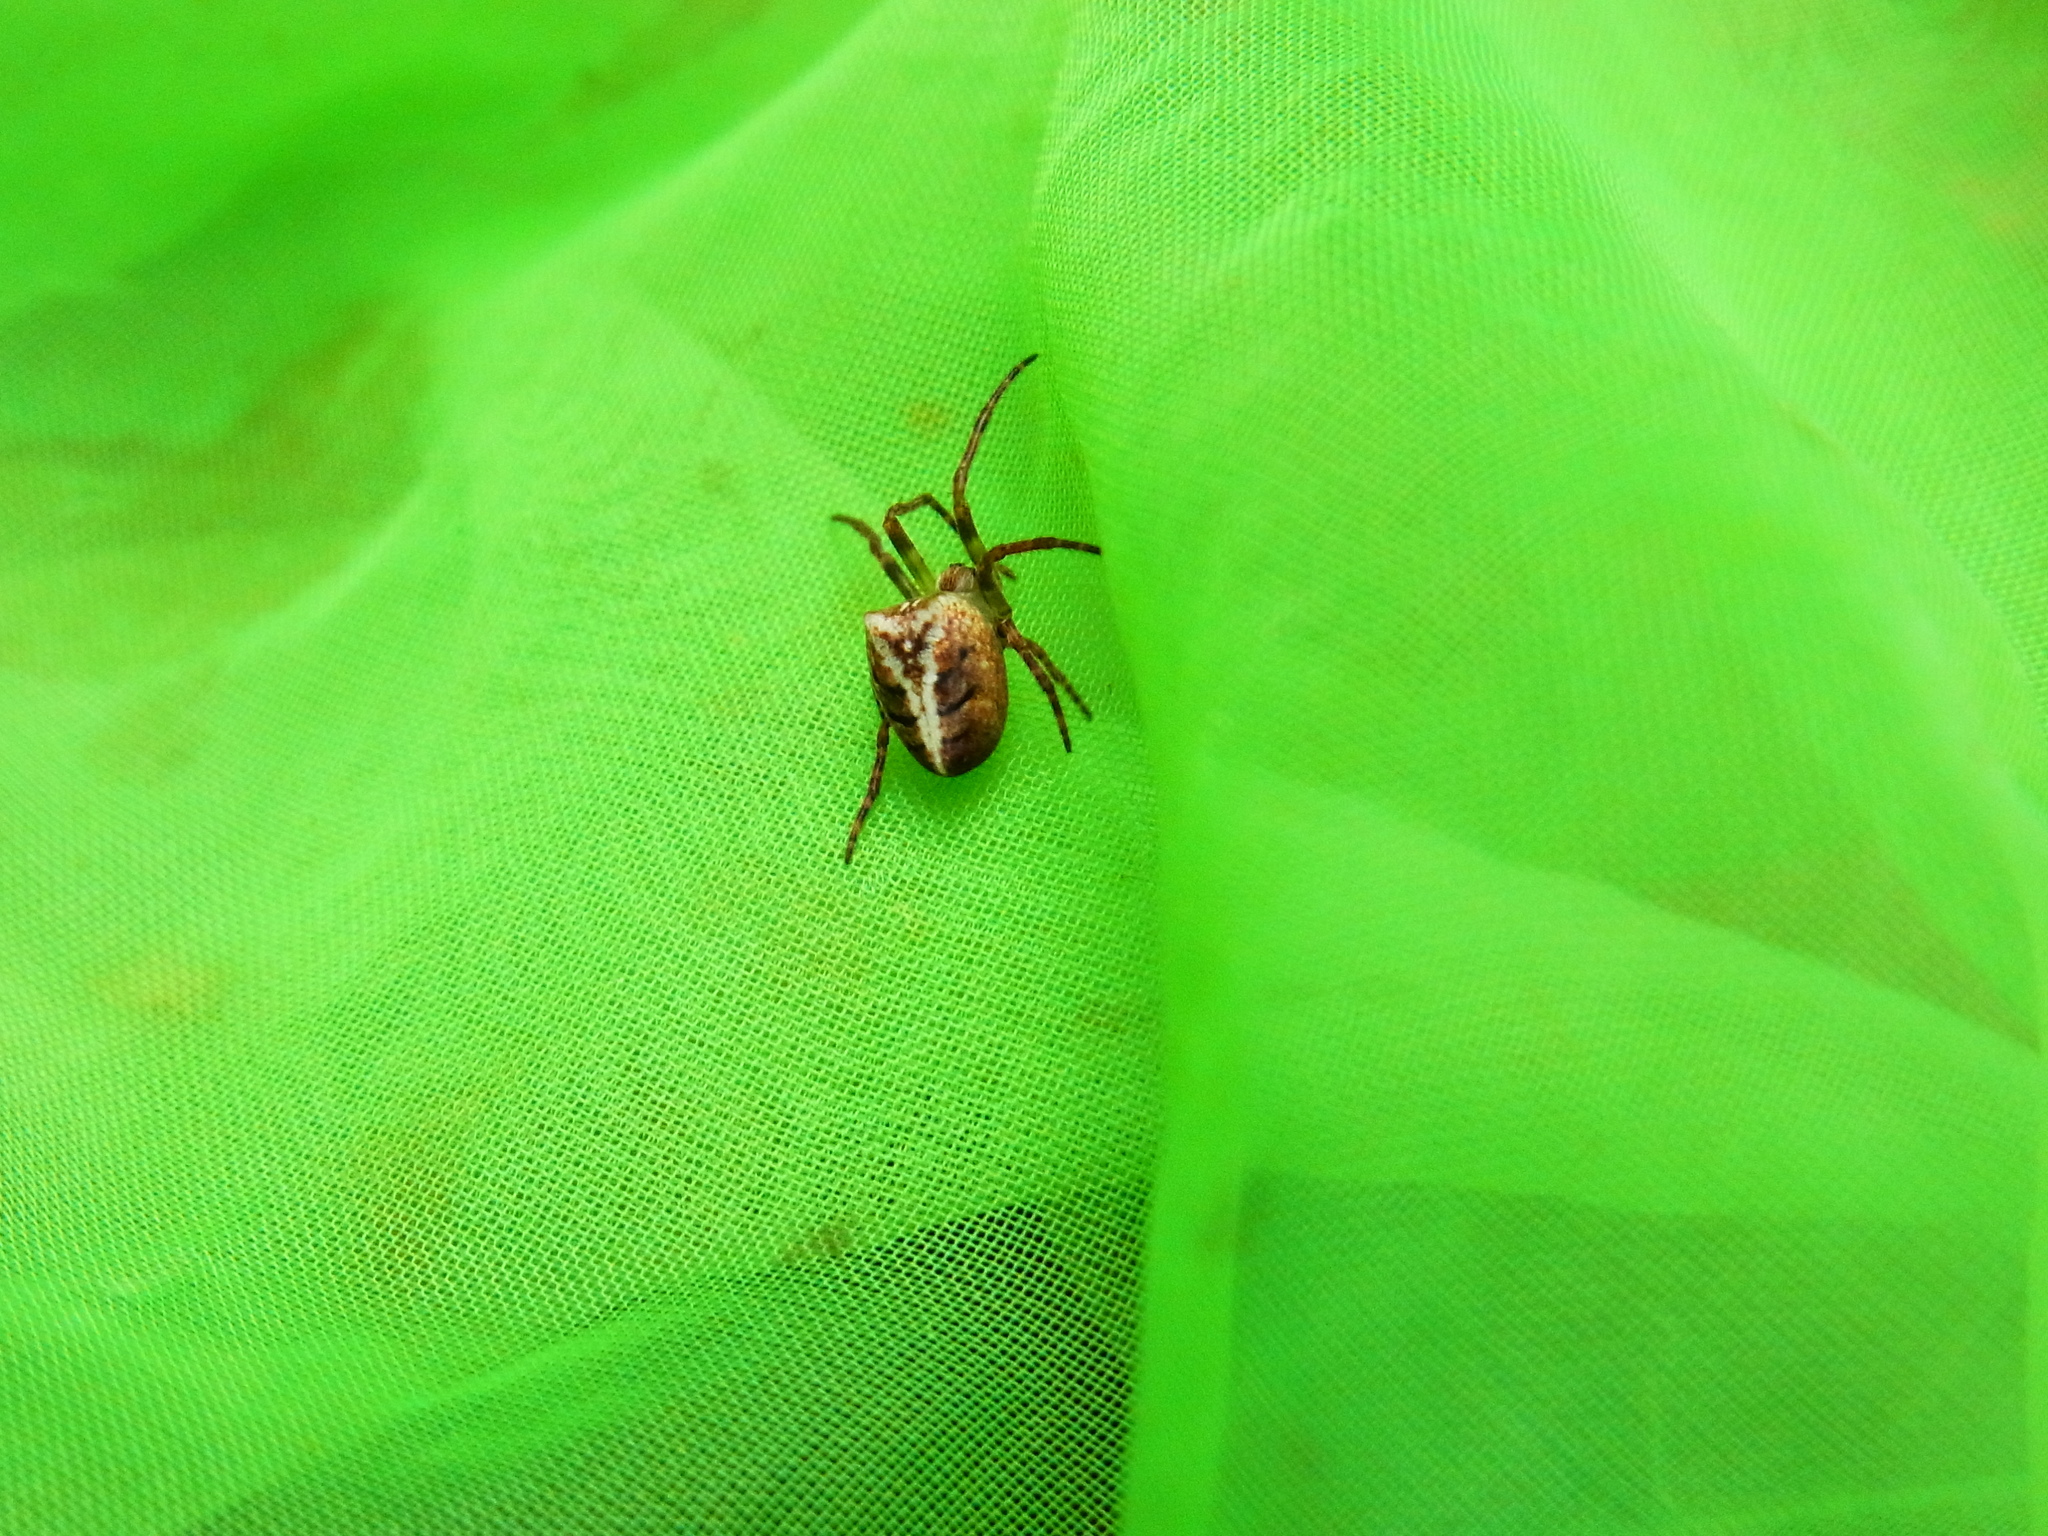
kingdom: Animalia
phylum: Arthropoda
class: Arachnida
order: Araneae
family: Araneidae
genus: Plebs
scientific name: Plebs astridae
